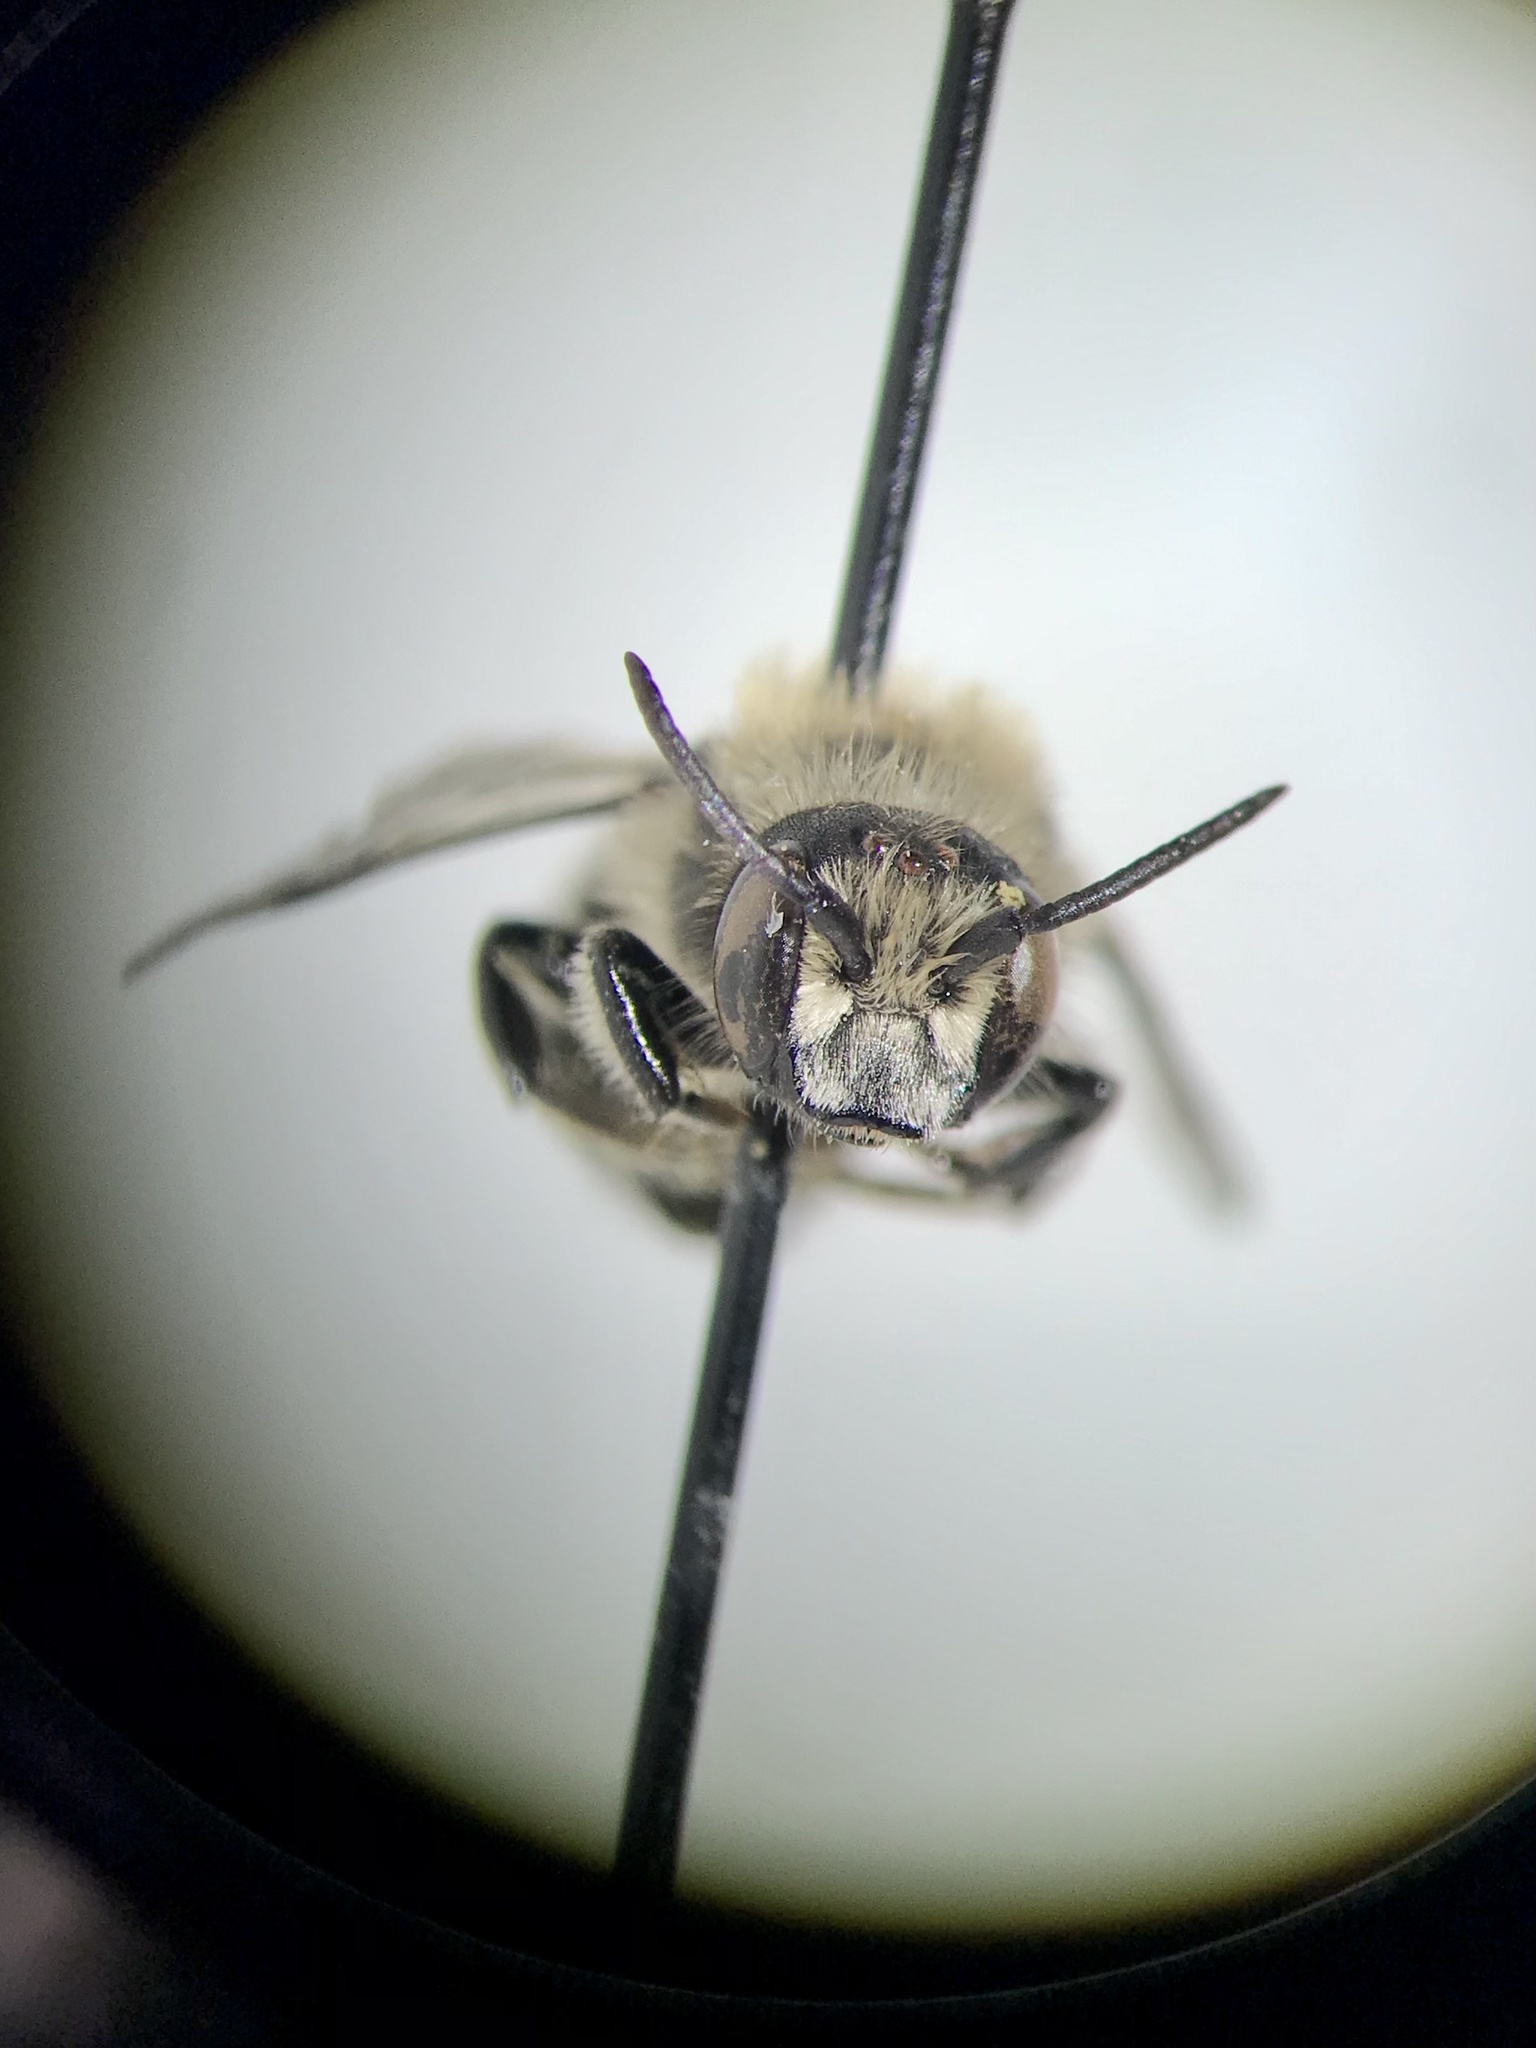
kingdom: Animalia
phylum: Arthropoda
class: Insecta
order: Hymenoptera
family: Megachilidae
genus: Hoplitis
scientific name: Hoplitis albifrons
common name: White-fronted small-mason
